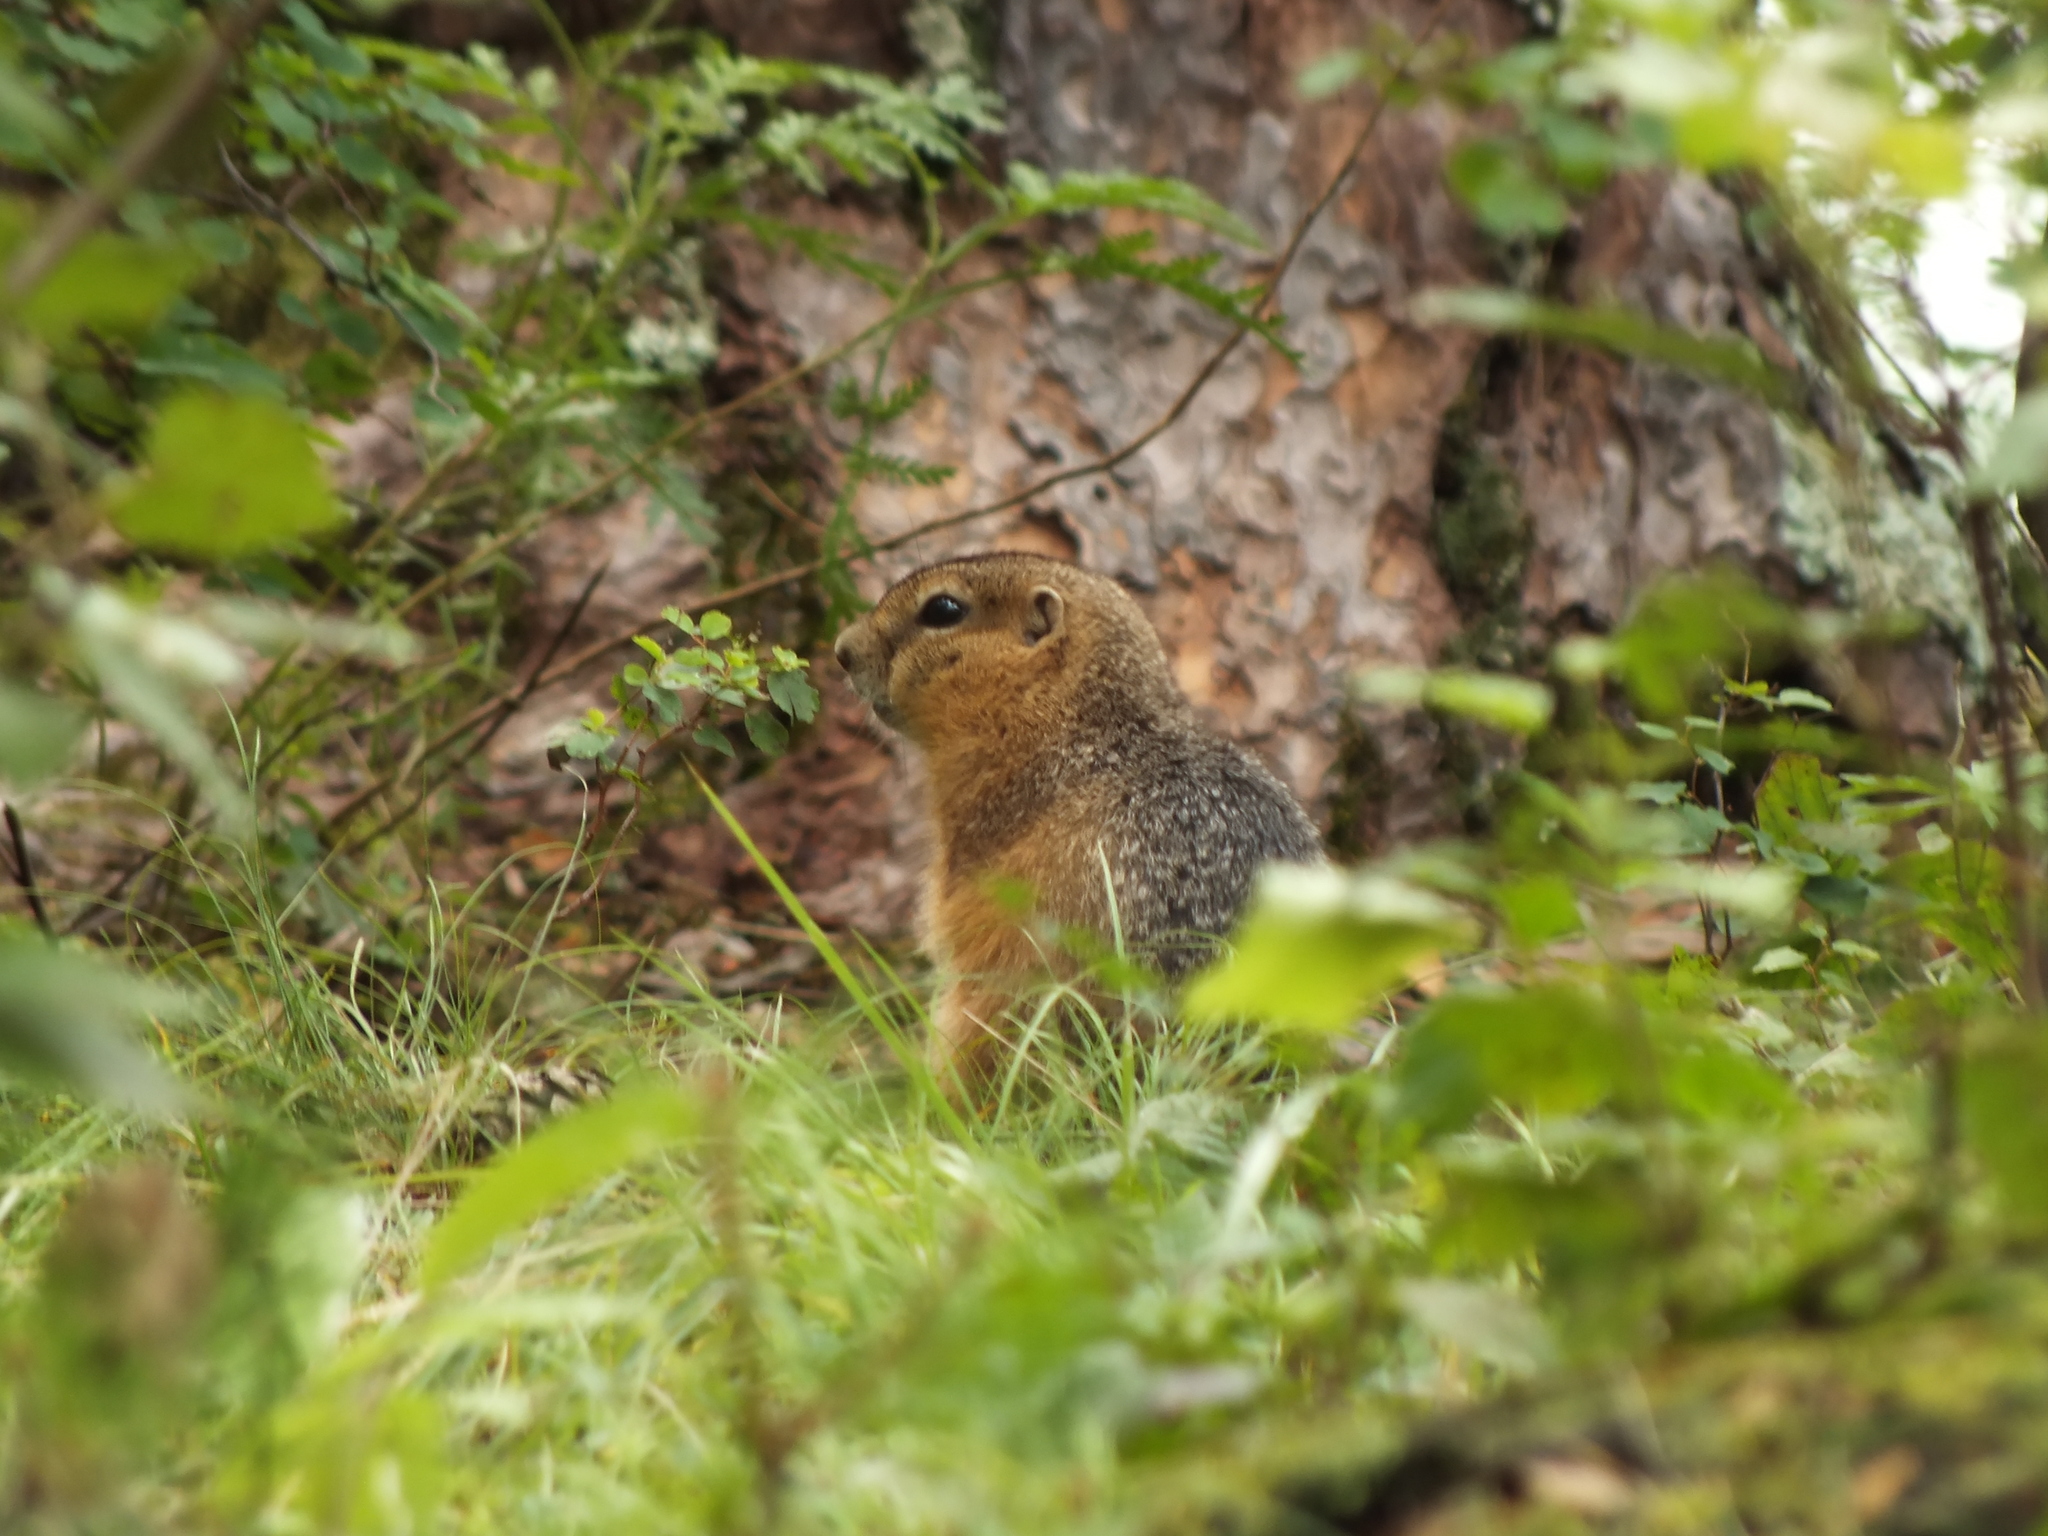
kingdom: Animalia
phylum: Chordata
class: Mammalia
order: Rodentia
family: Sciuridae
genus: Urocitellus
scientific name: Urocitellus undulatus
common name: Long-tailed ground squirrel
